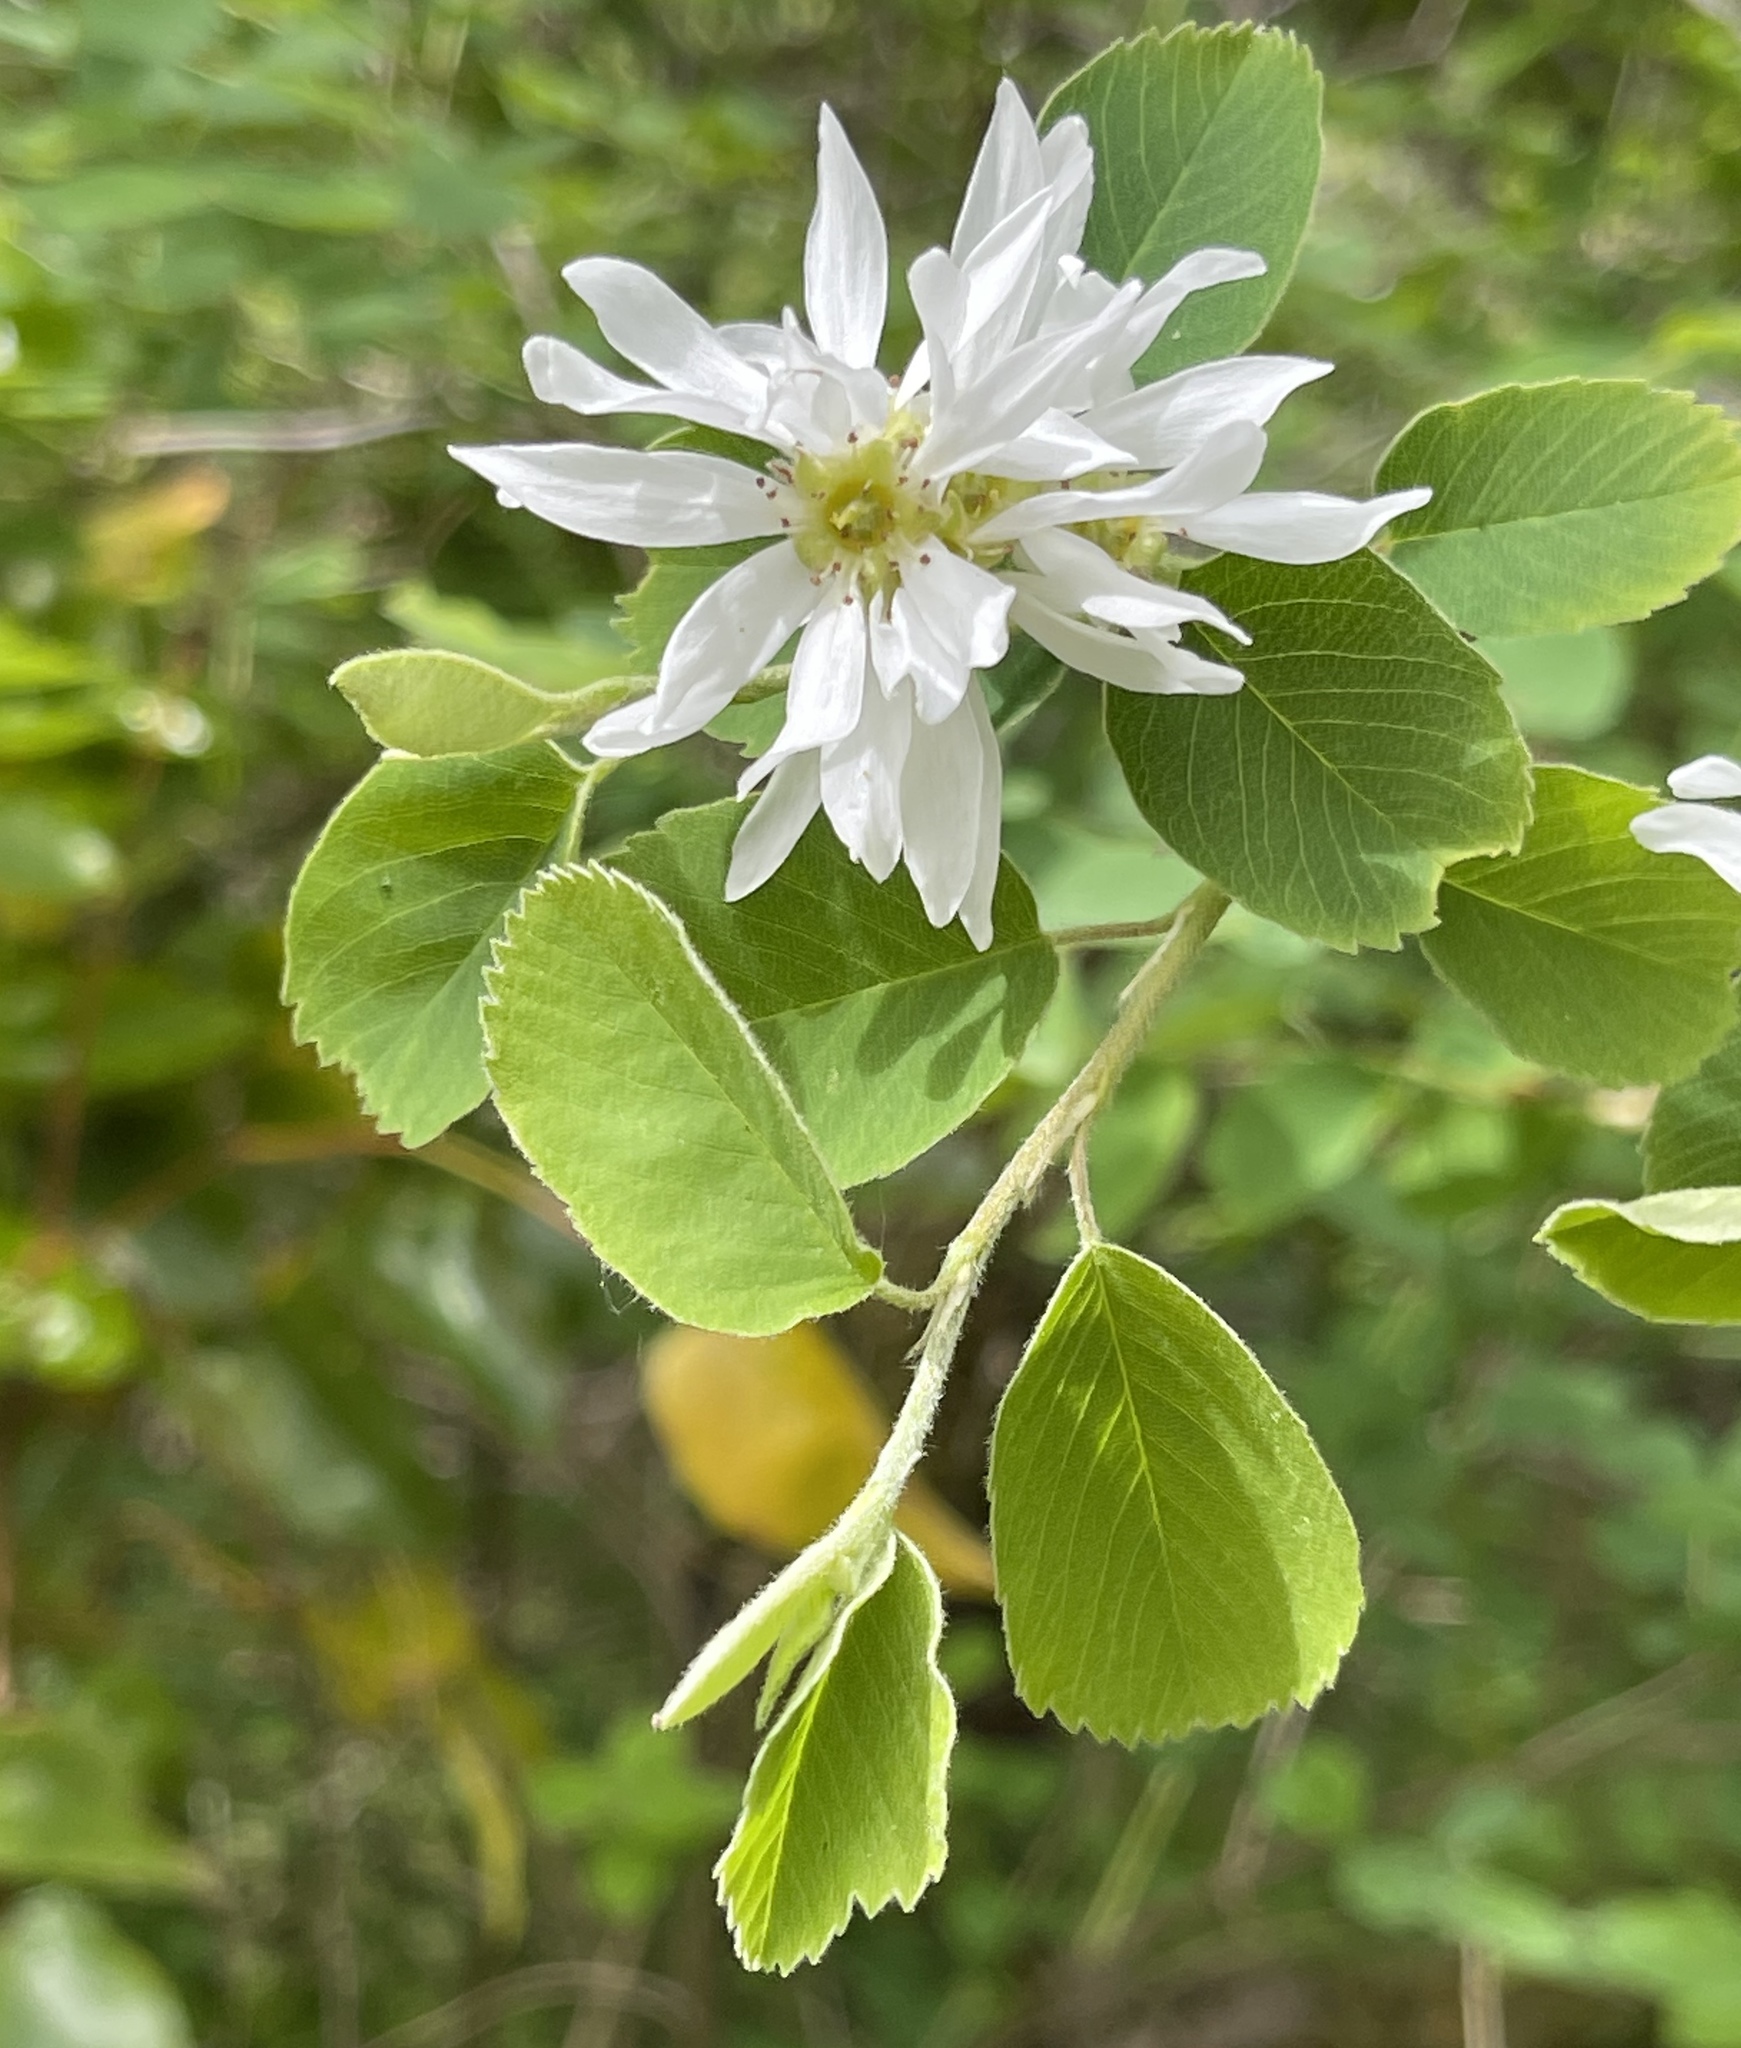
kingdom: Plantae
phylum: Tracheophyta
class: Magnoliopsida
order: Rosales
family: Rosaceae
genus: Amelanchier
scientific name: Amelanchier alnifolia
